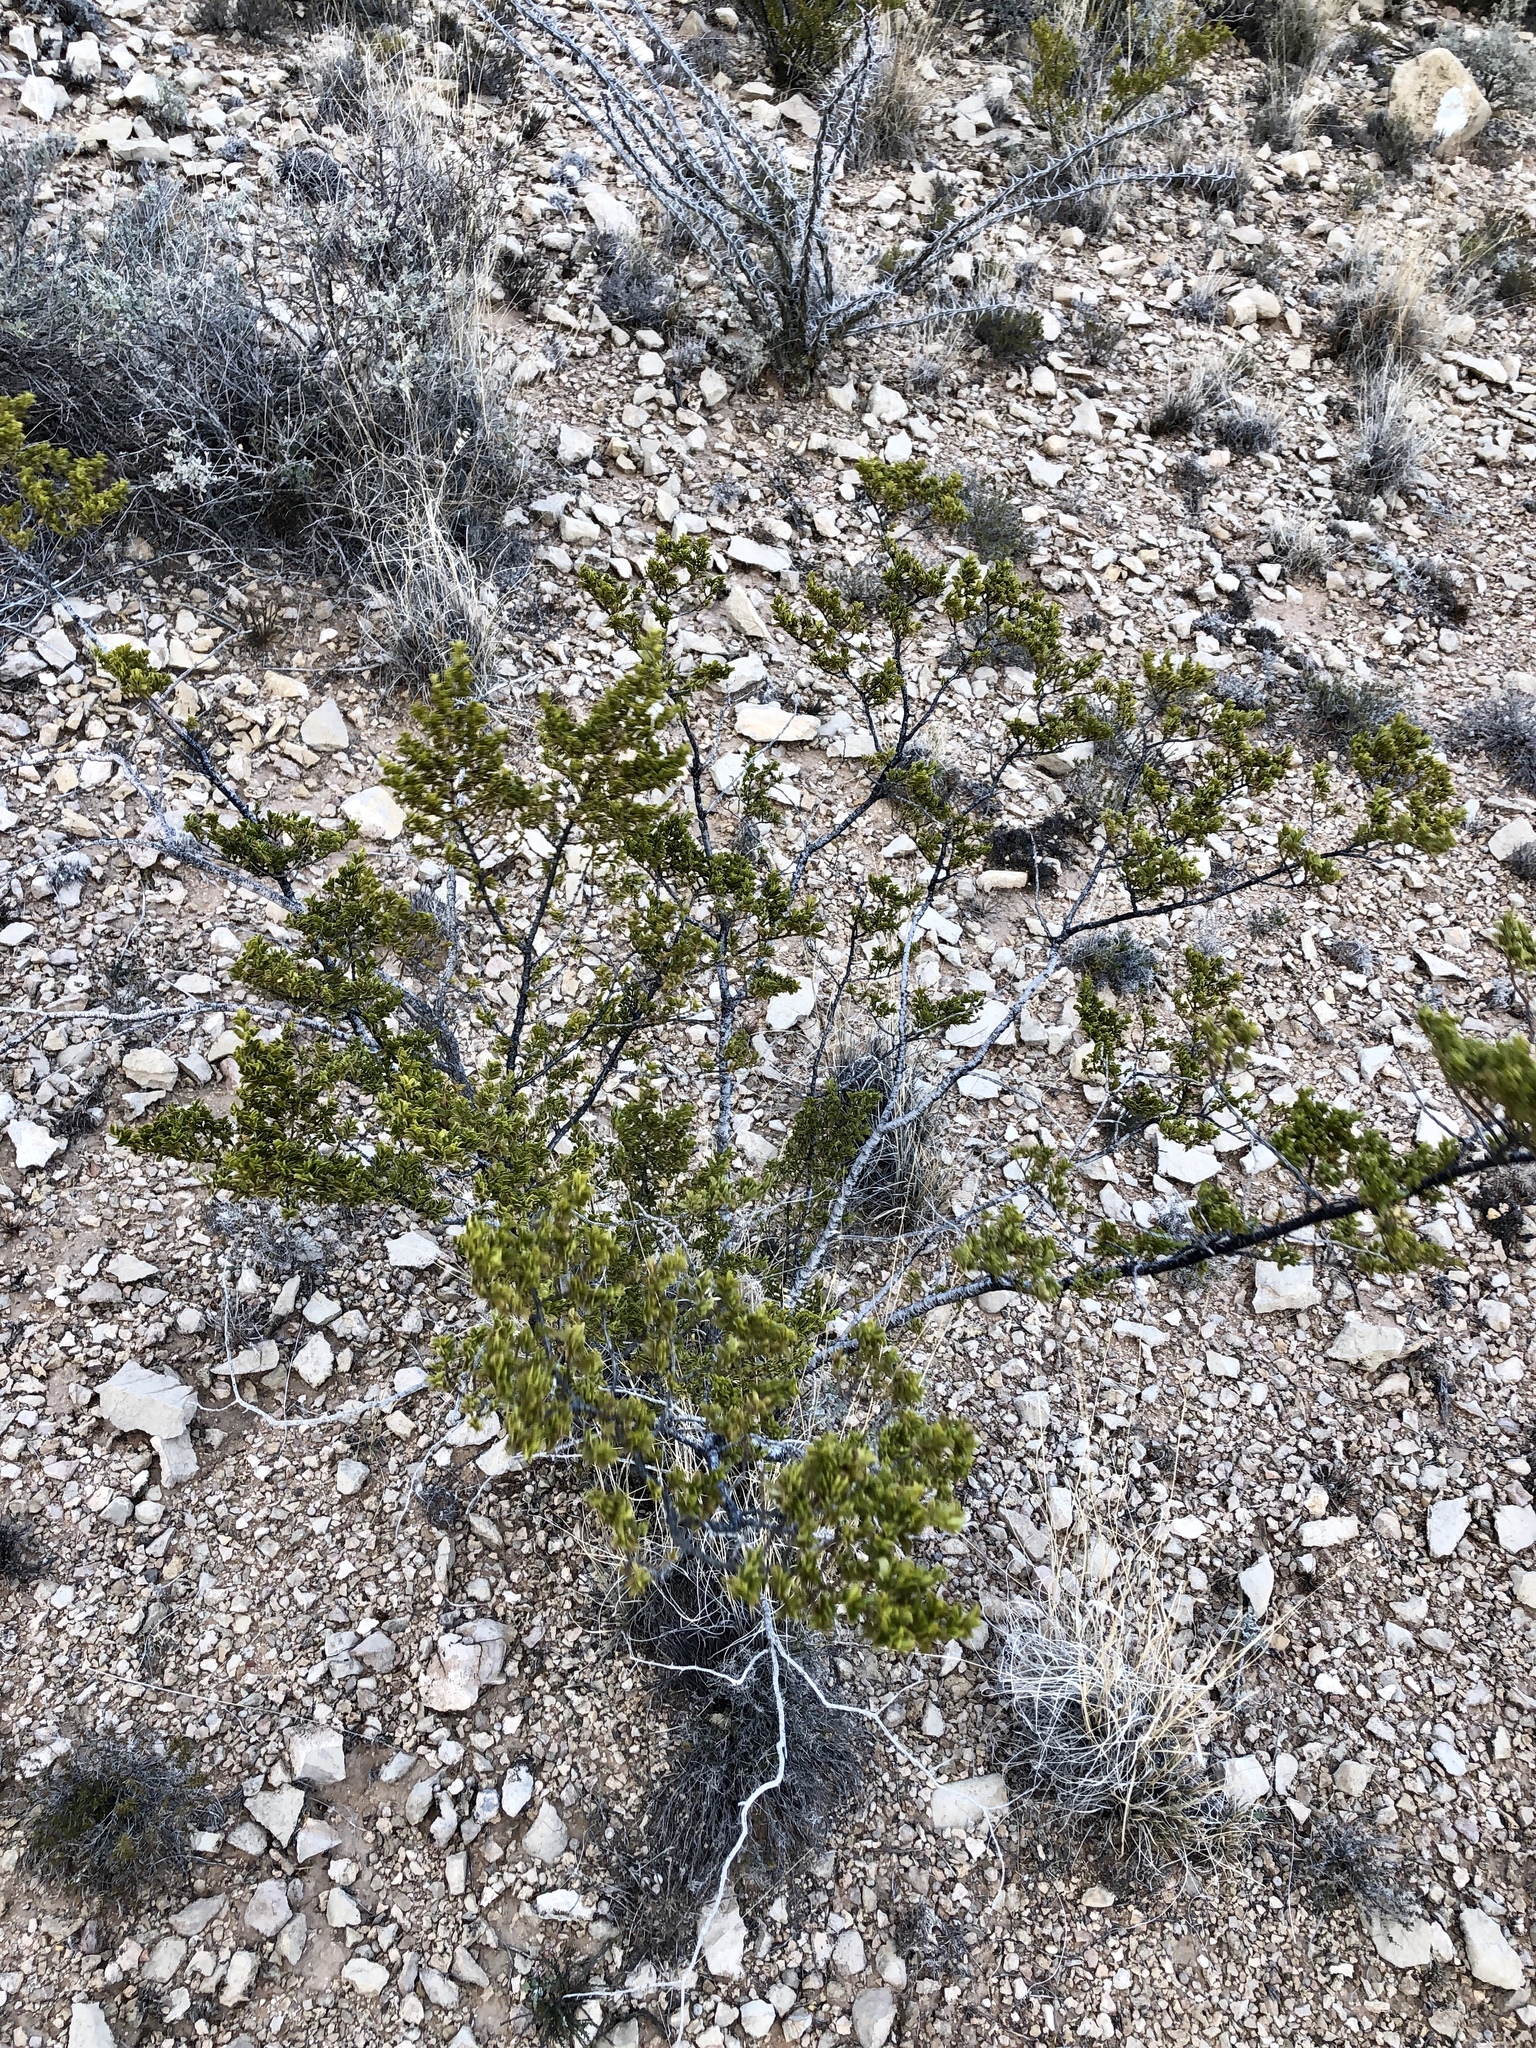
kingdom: Plantae
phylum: Tracheophyta
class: Magnoliopsida
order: Zygophyllales
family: Zygophyllaceae
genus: Larrea
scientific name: Larrea tridentata
